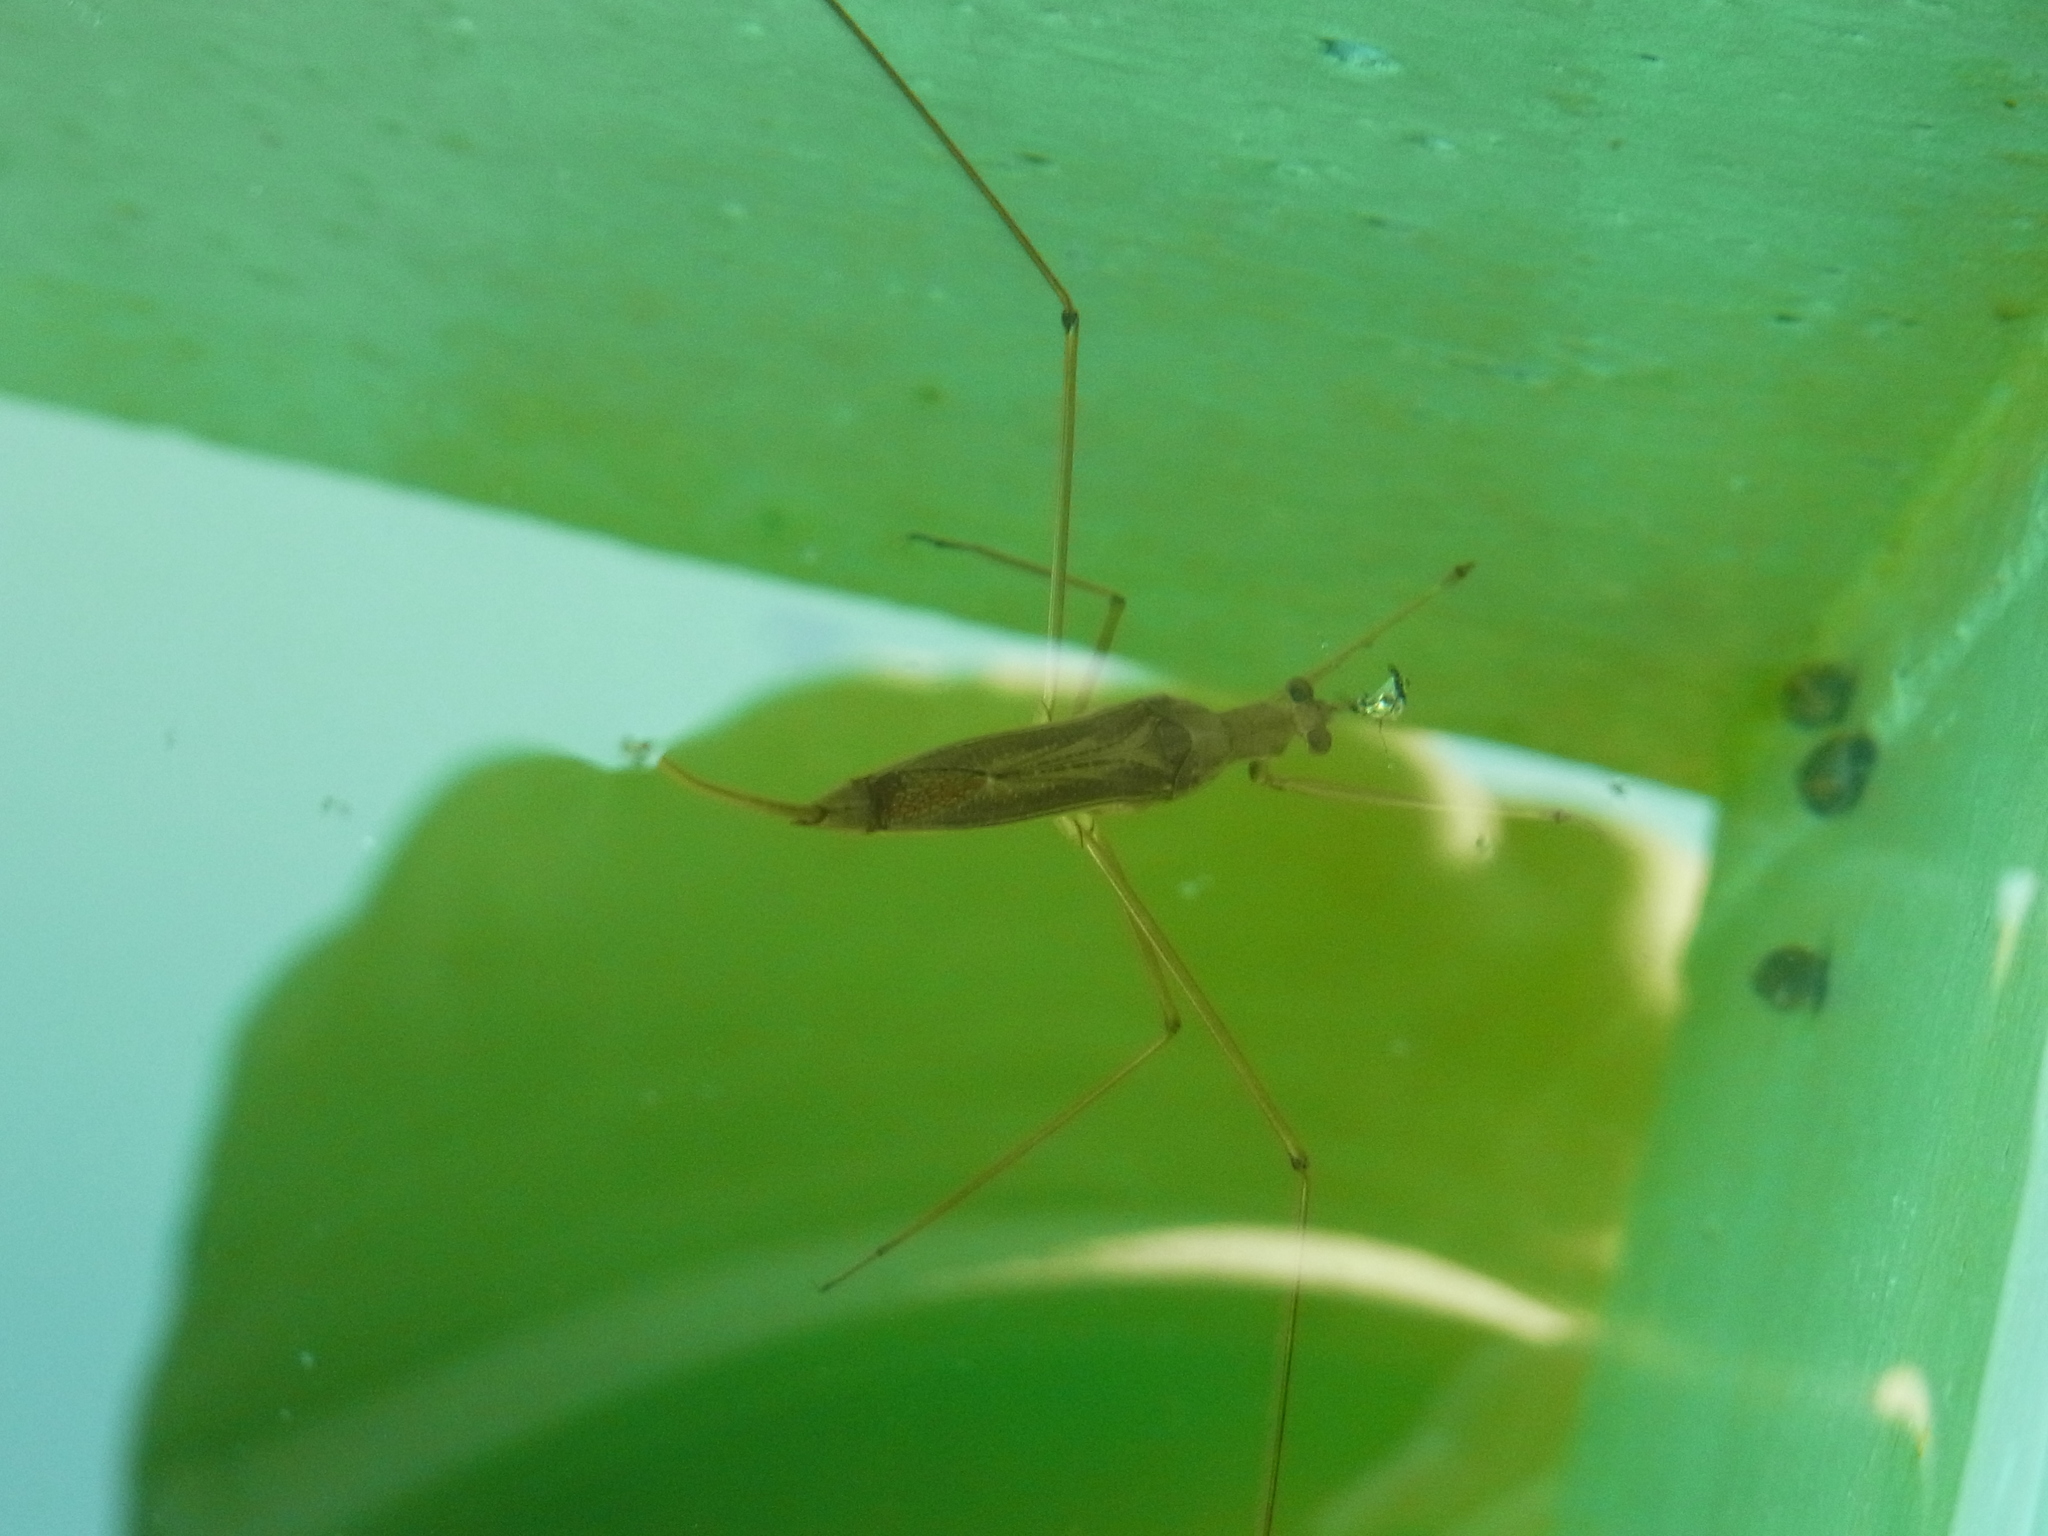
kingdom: Animalia
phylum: Arthropoda
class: Insecta
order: Hemiptera
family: Nepidae
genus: Ranatra
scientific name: Ranatra chinensis
